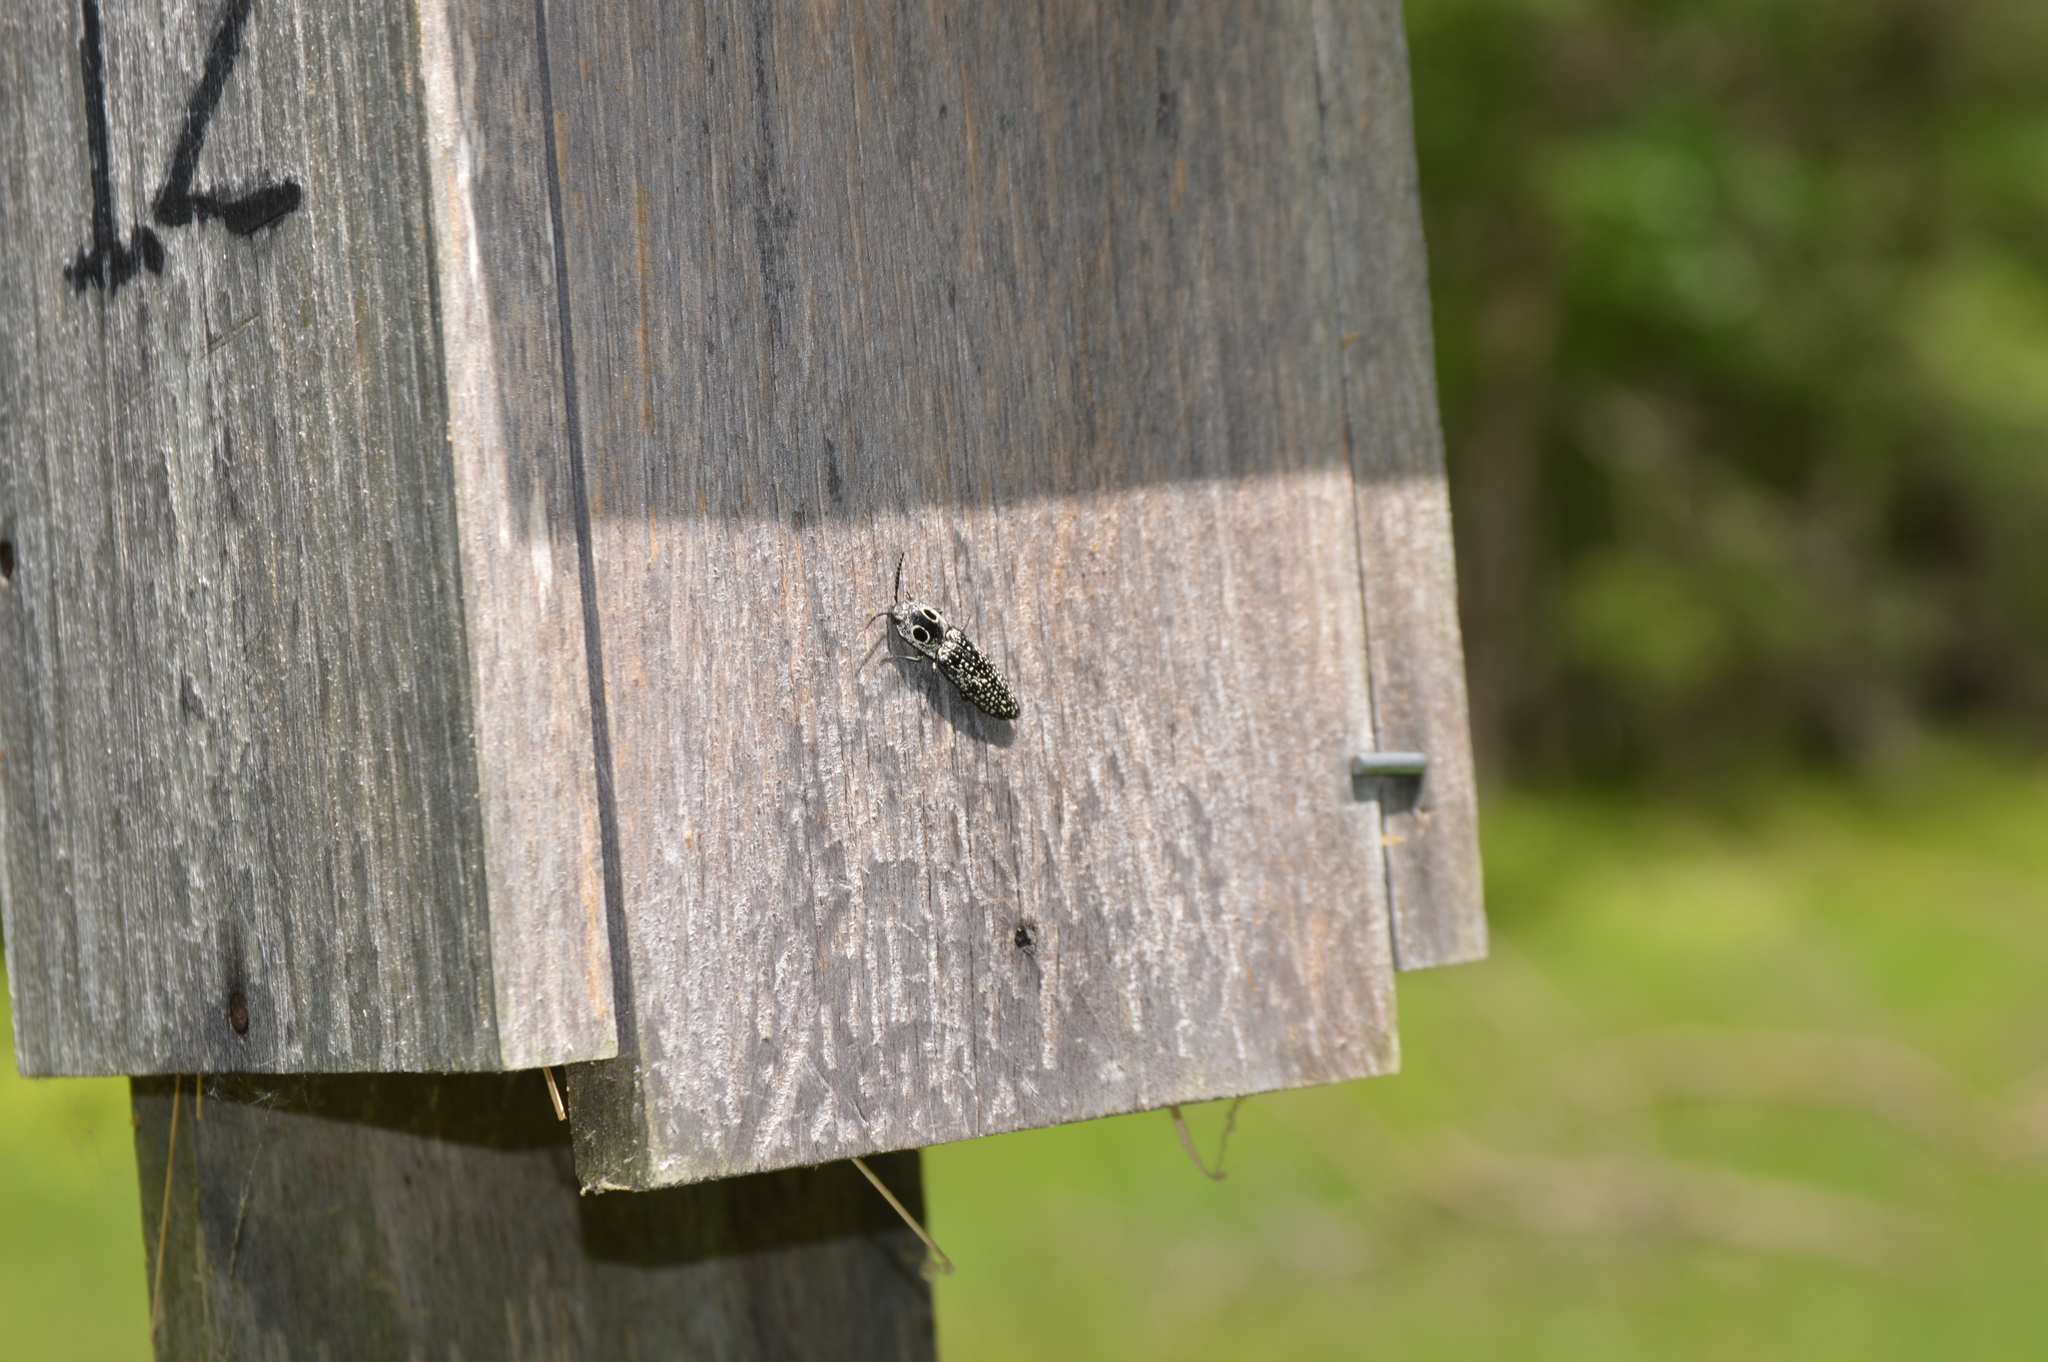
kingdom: Animalia
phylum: Arthropoda
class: Insecta
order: Coleoptera
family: Elateridae
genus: Alaus
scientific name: Alaus oculatus
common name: Eastern eyed click beetle
